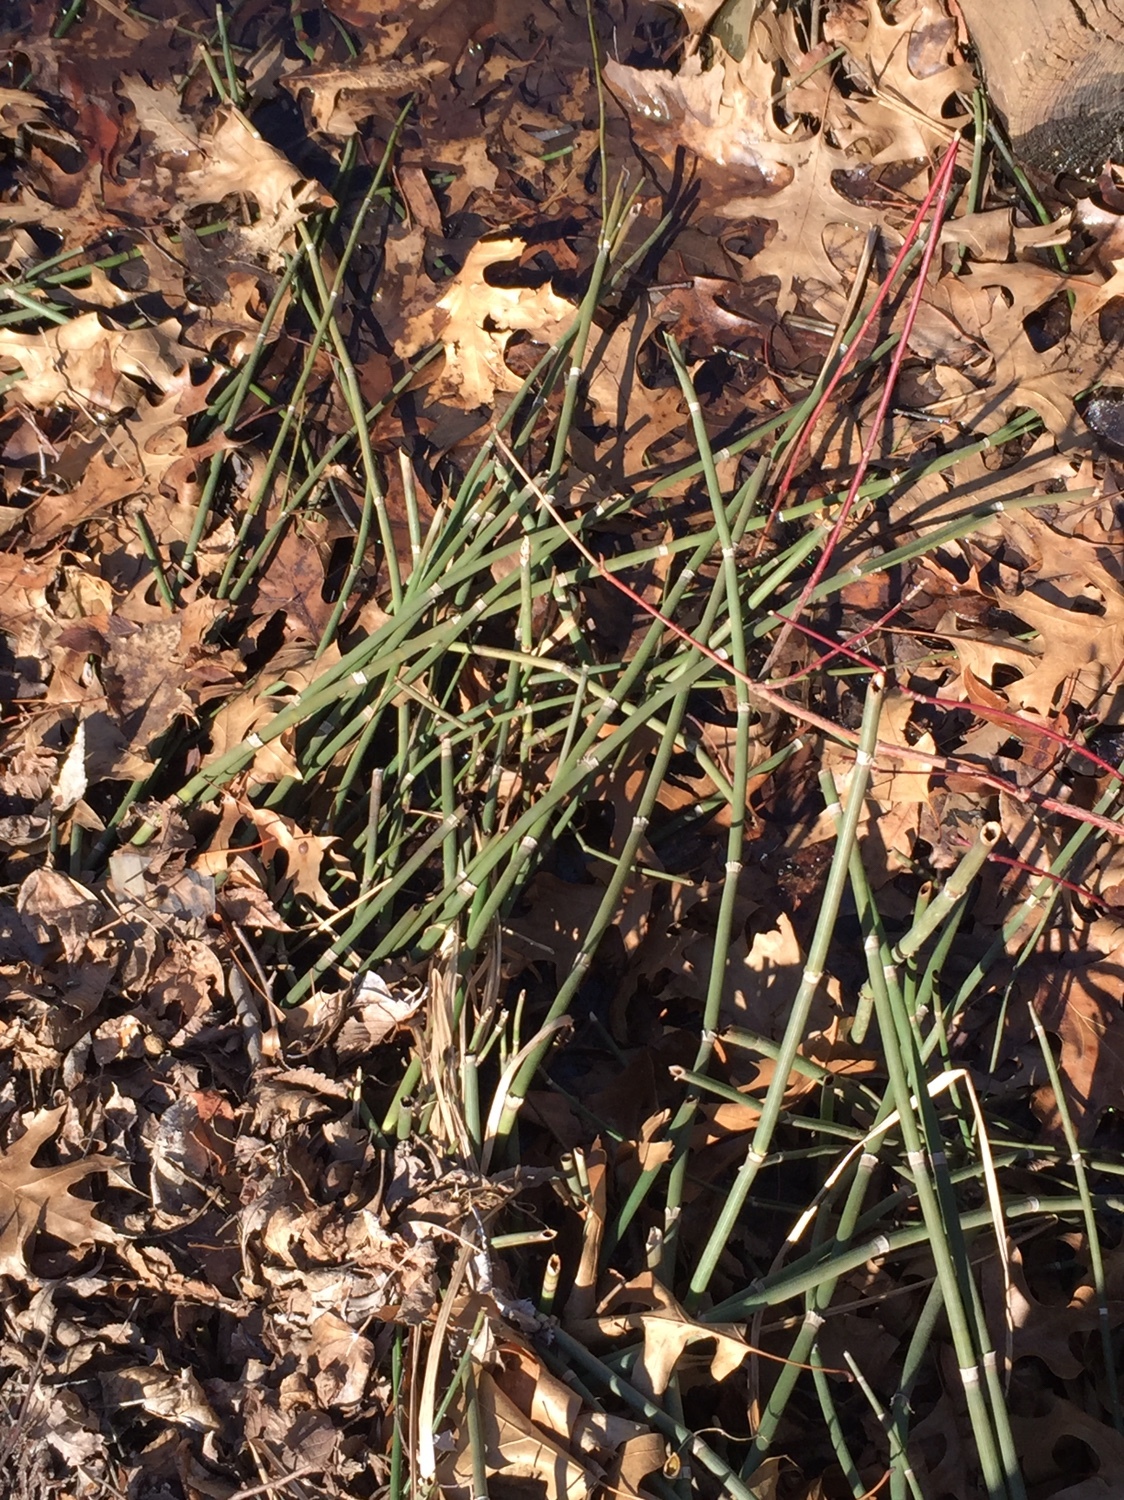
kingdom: Plantae
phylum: Tracheophyta
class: Polypodiopsida
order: Equisetales
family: Equisetaceae
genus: Equisetum
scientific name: Equisetum hyemale
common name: Rough horsetail
